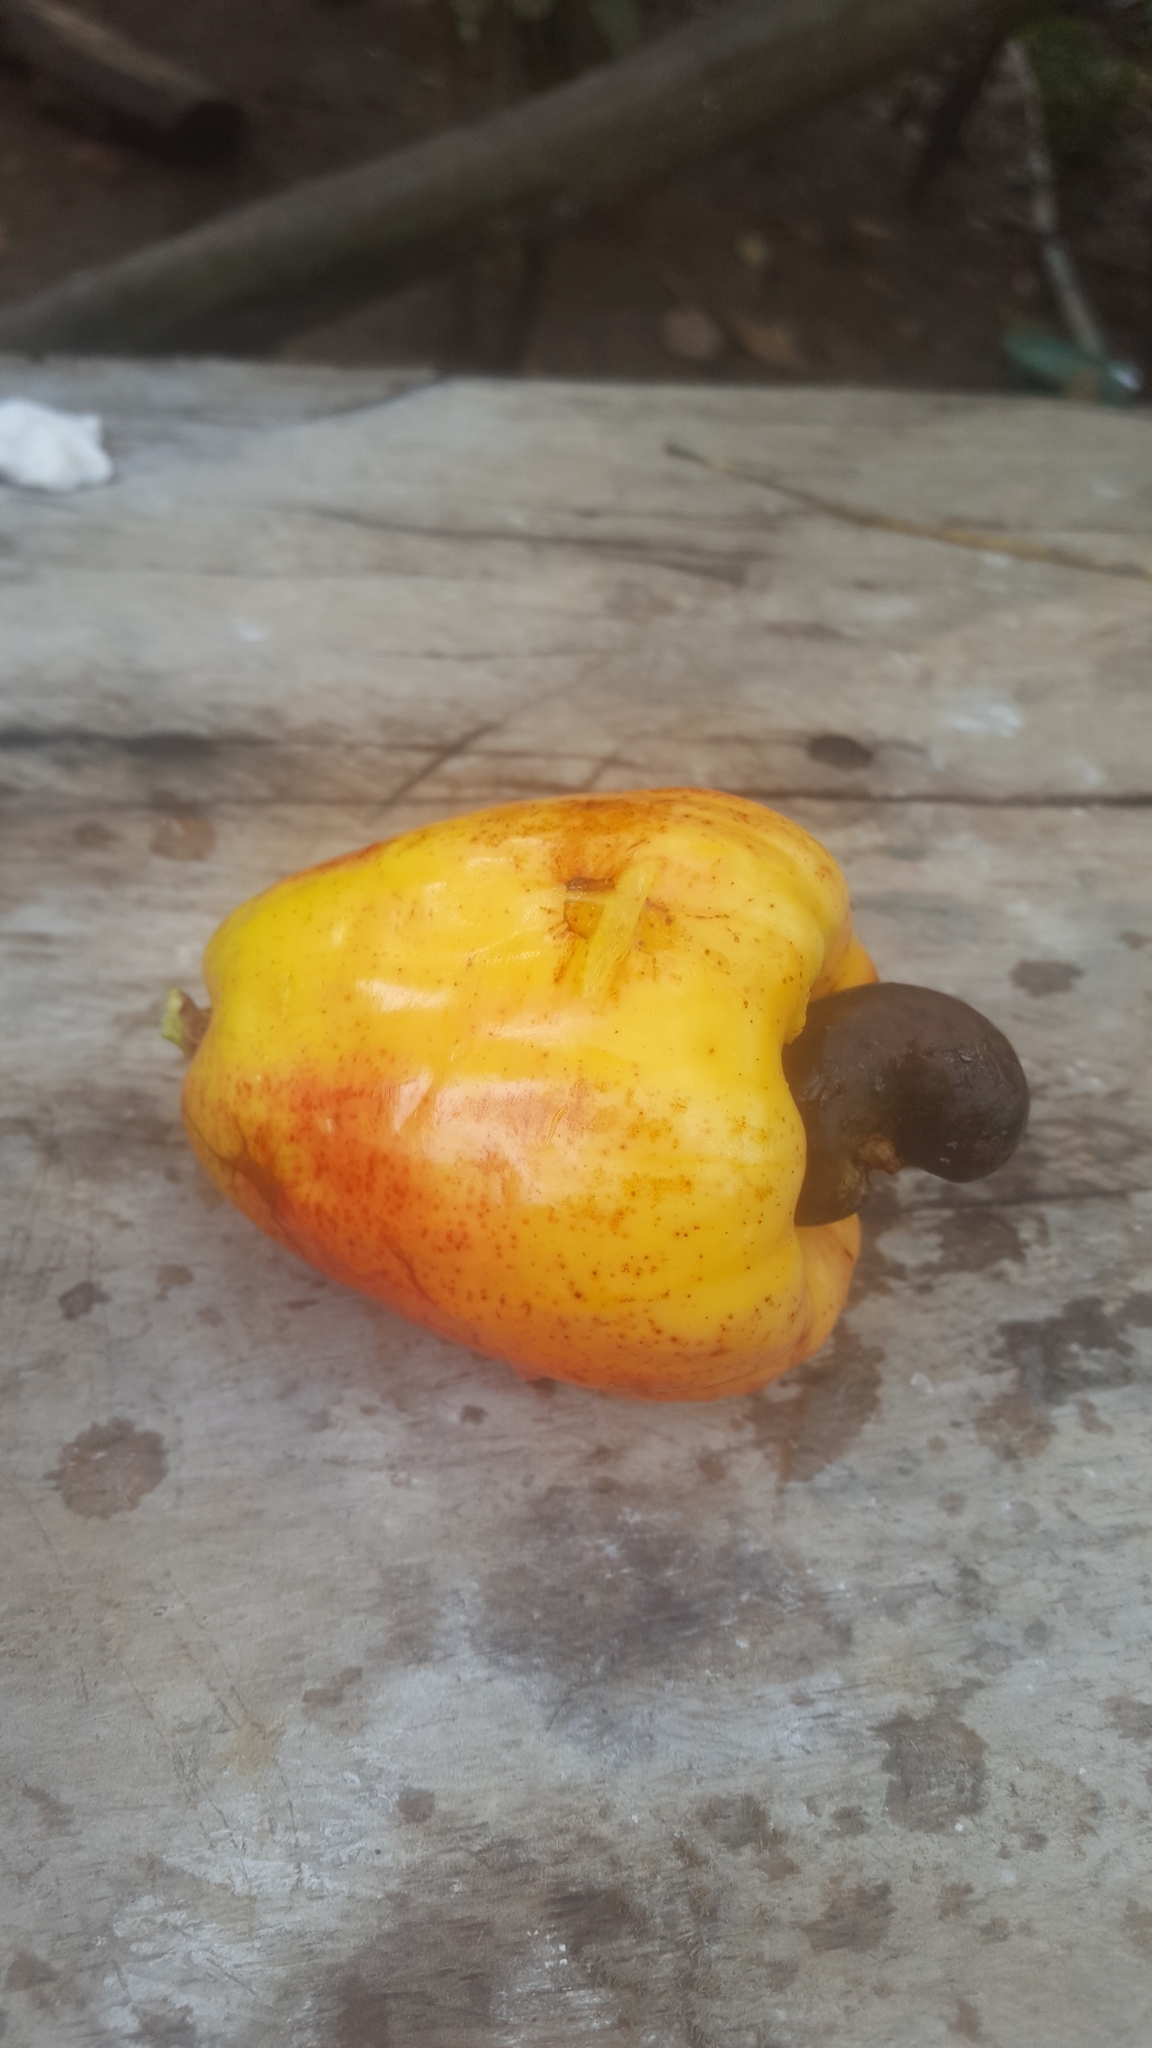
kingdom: Plantae
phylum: Tracheophyta
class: Magnoliopsida
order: Sapindales
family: Anacardiaceae
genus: Anacardium
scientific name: Anacardium occidentale
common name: Cashew
